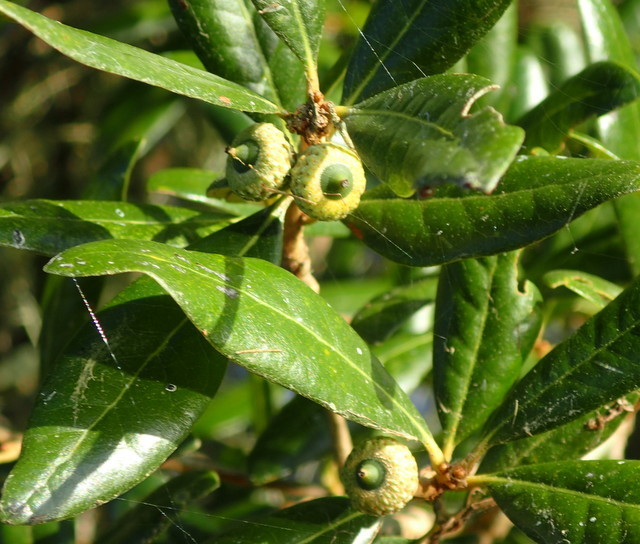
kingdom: Plantae
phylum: Tracheophyta
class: Magnoliopsida
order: Fagales
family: Fagaceae
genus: Quercus
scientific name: Quercus virginiana
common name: Southern live oak
